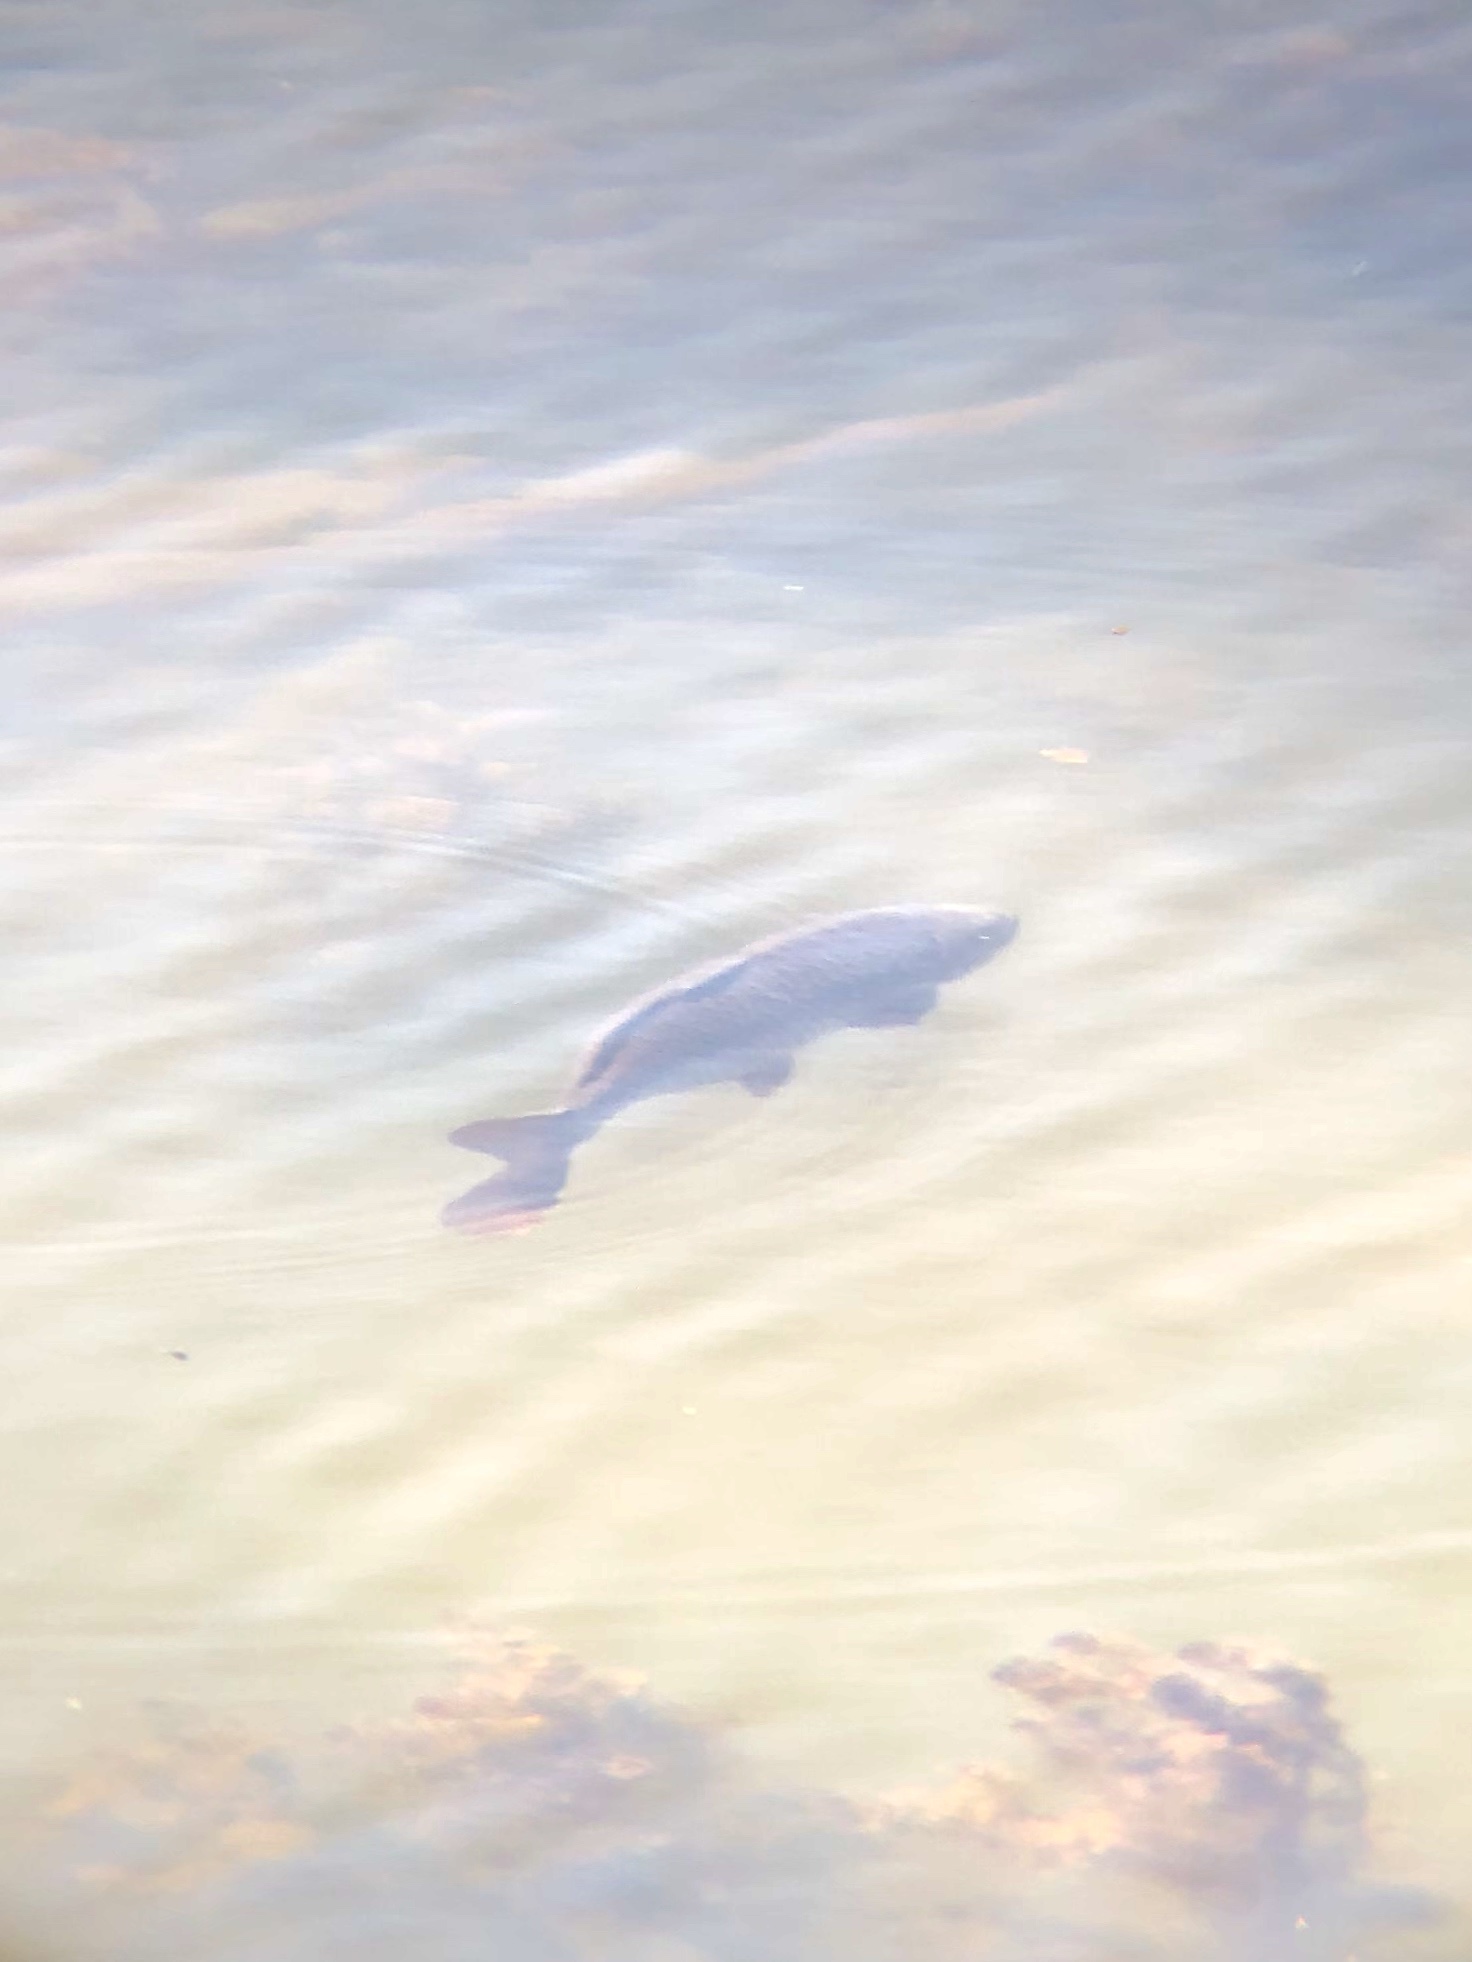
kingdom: Animalia
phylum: Chordata
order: Cypriniformes
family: Cyprinidae
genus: Cyprinus
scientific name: Cyprinus carpio
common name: Common carp
